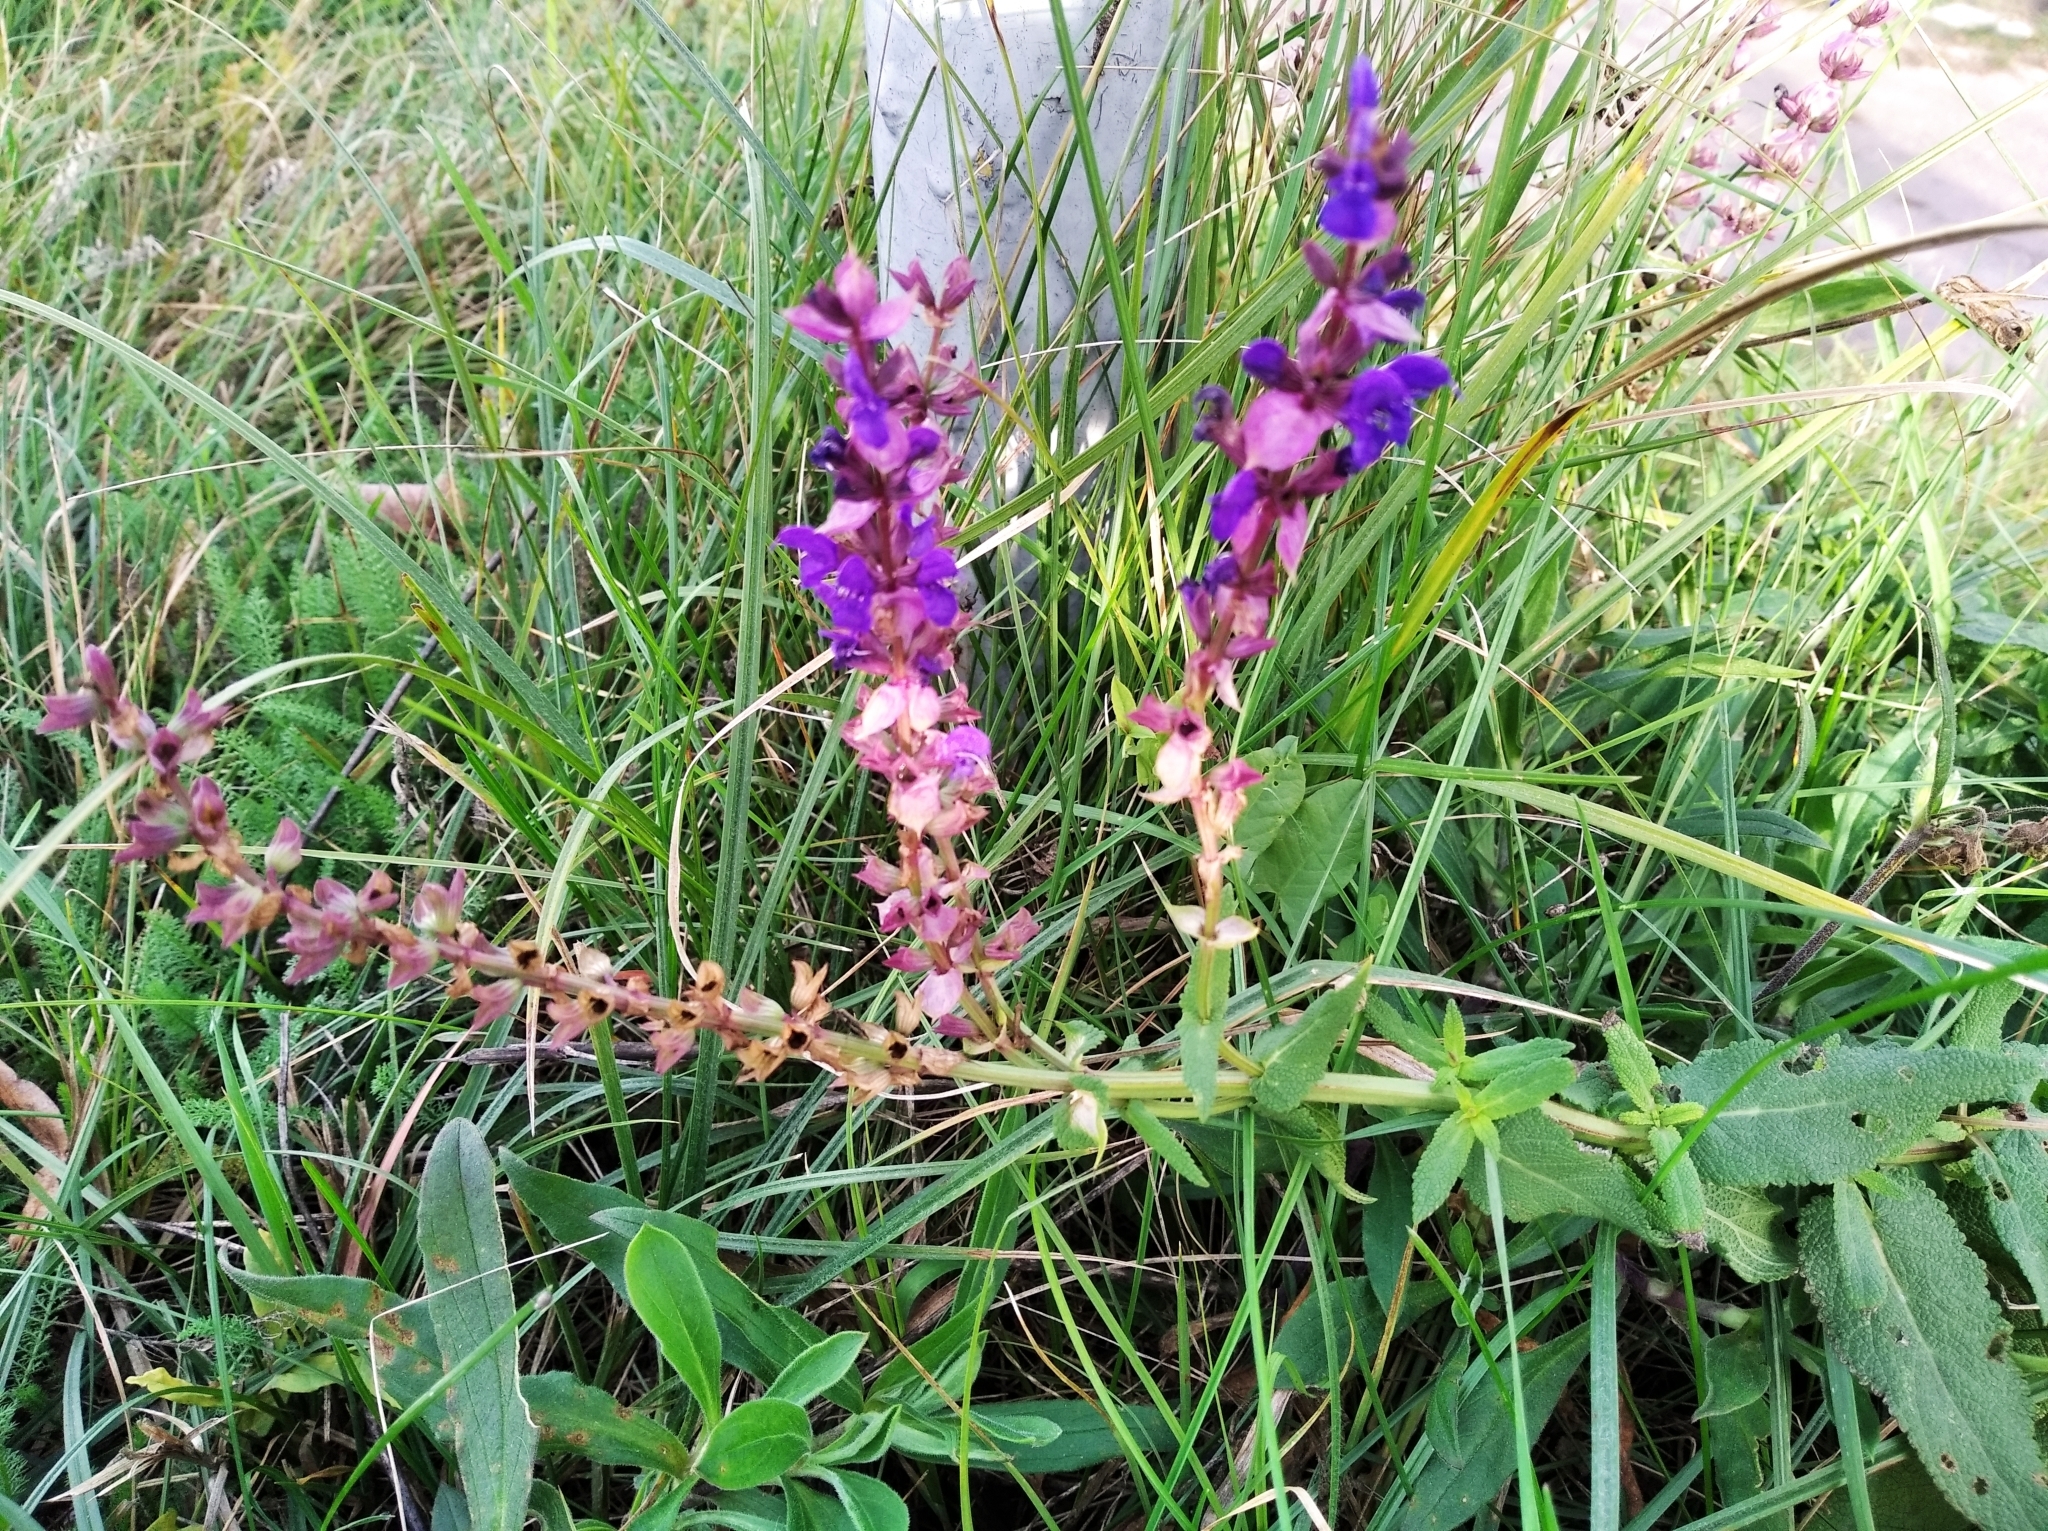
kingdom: Plantae
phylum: Tracheophyta
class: Magnoliopsida
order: Lamiales
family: Lamiaceae
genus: Salvia
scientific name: Salvia nemorosa
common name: Balkan clary
